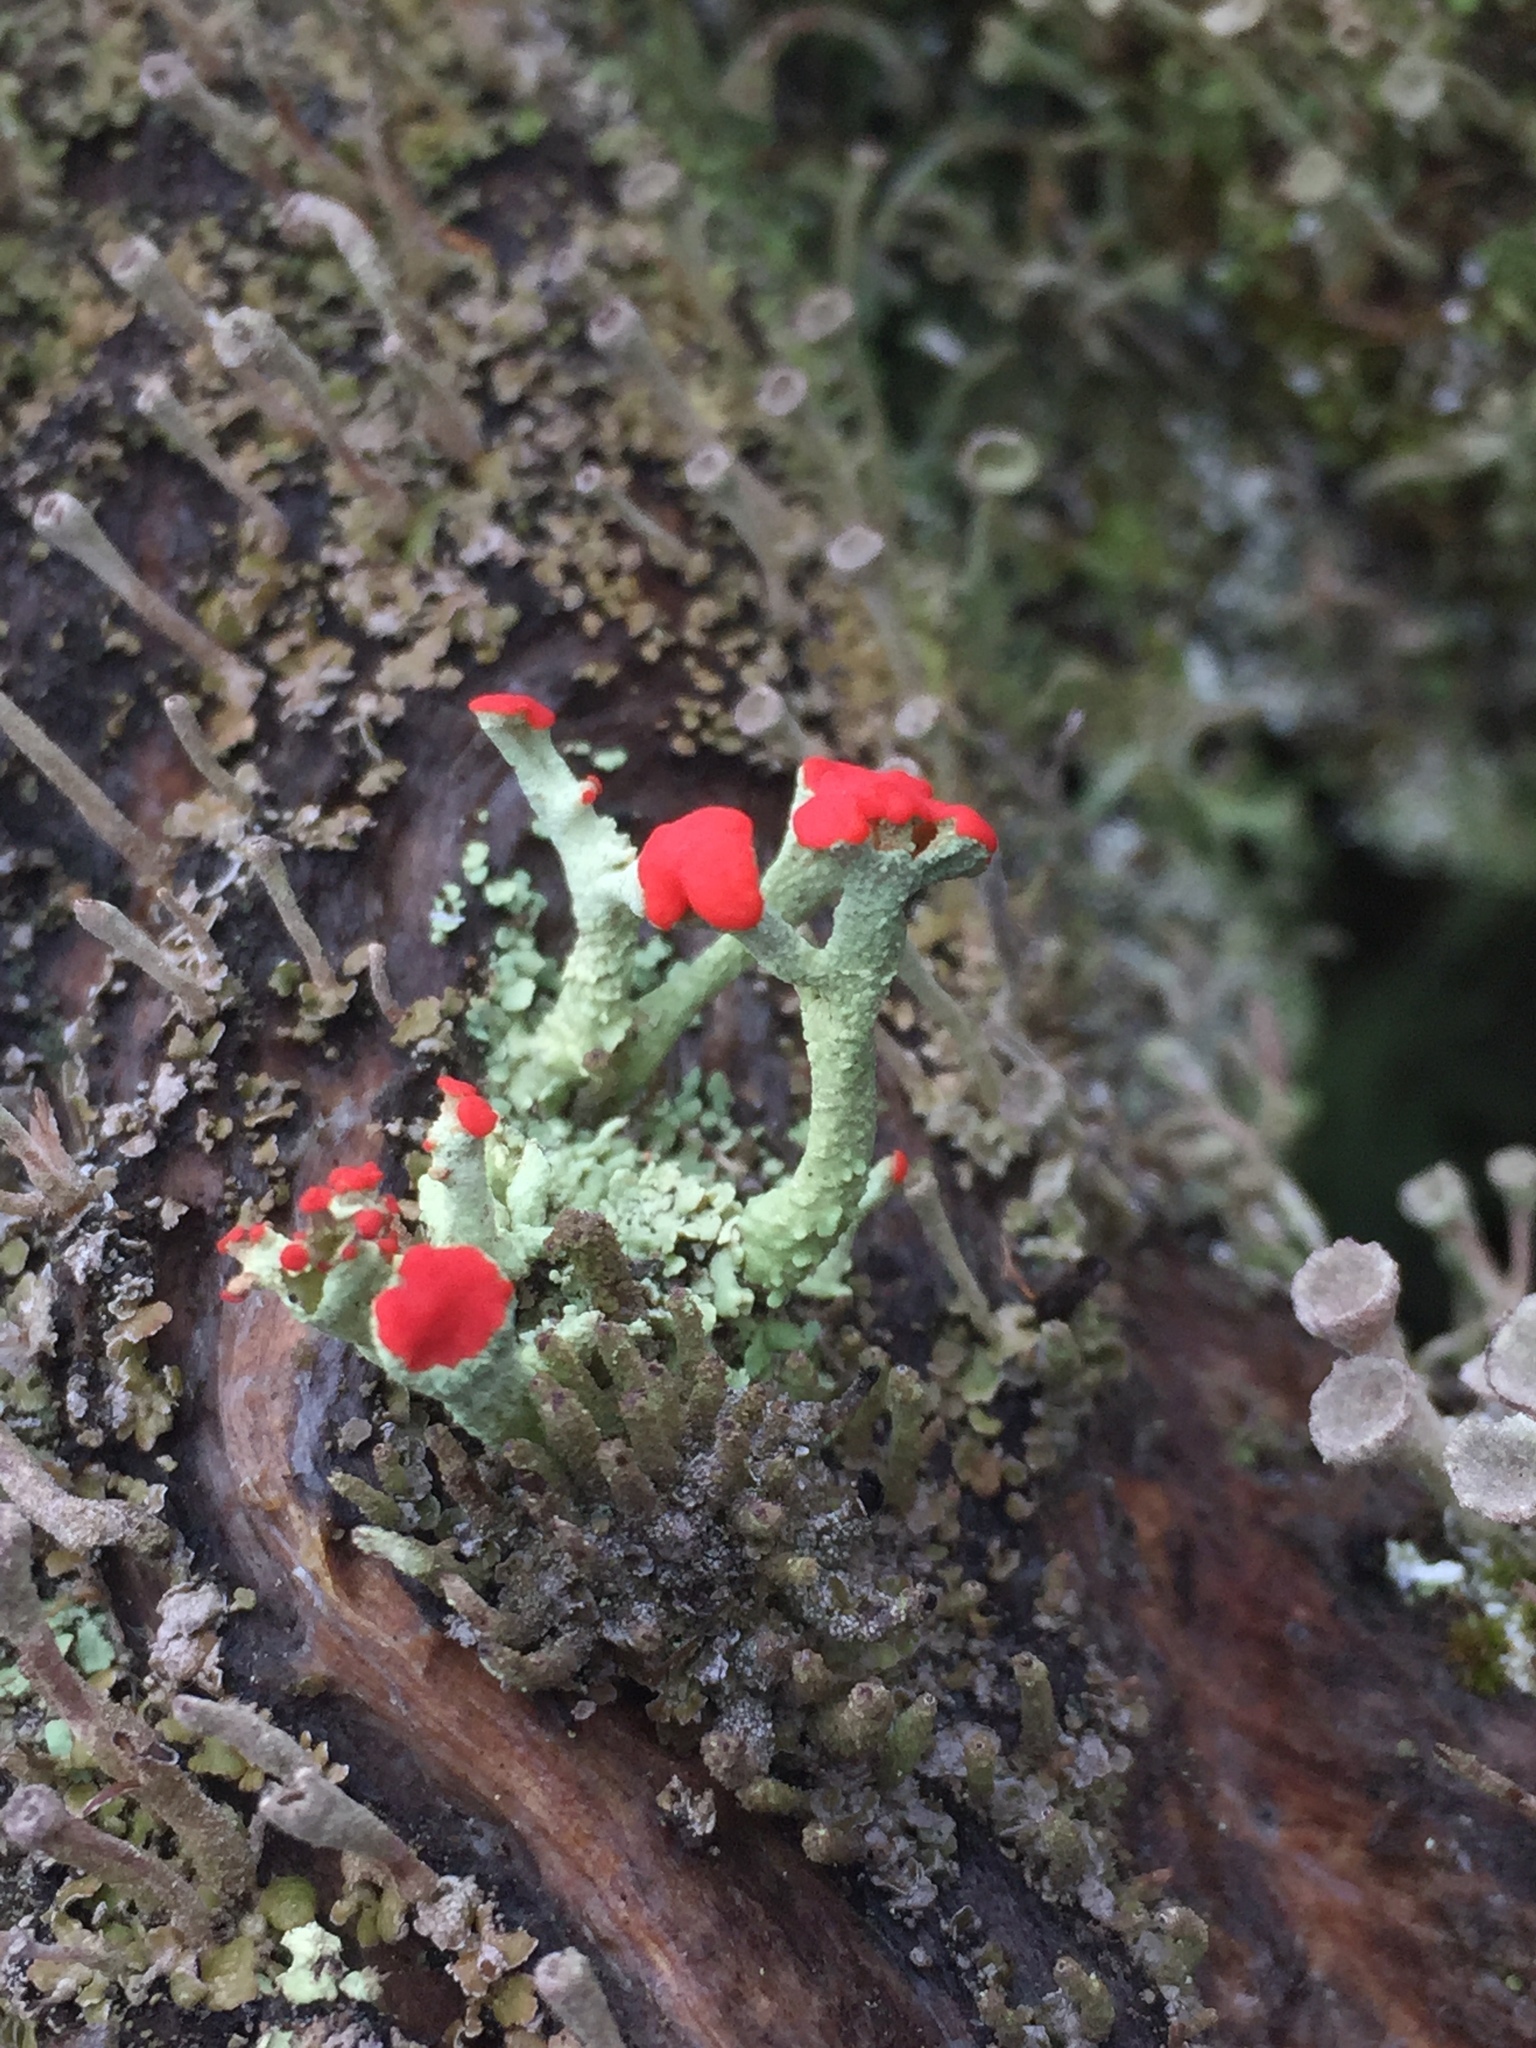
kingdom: Fungi
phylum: Ascomycota
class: Lecanoromycetes
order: Lecanorales
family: Cladoniaceae
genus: Cladonia
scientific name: Cladonia cristatella
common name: British soldier lichen
